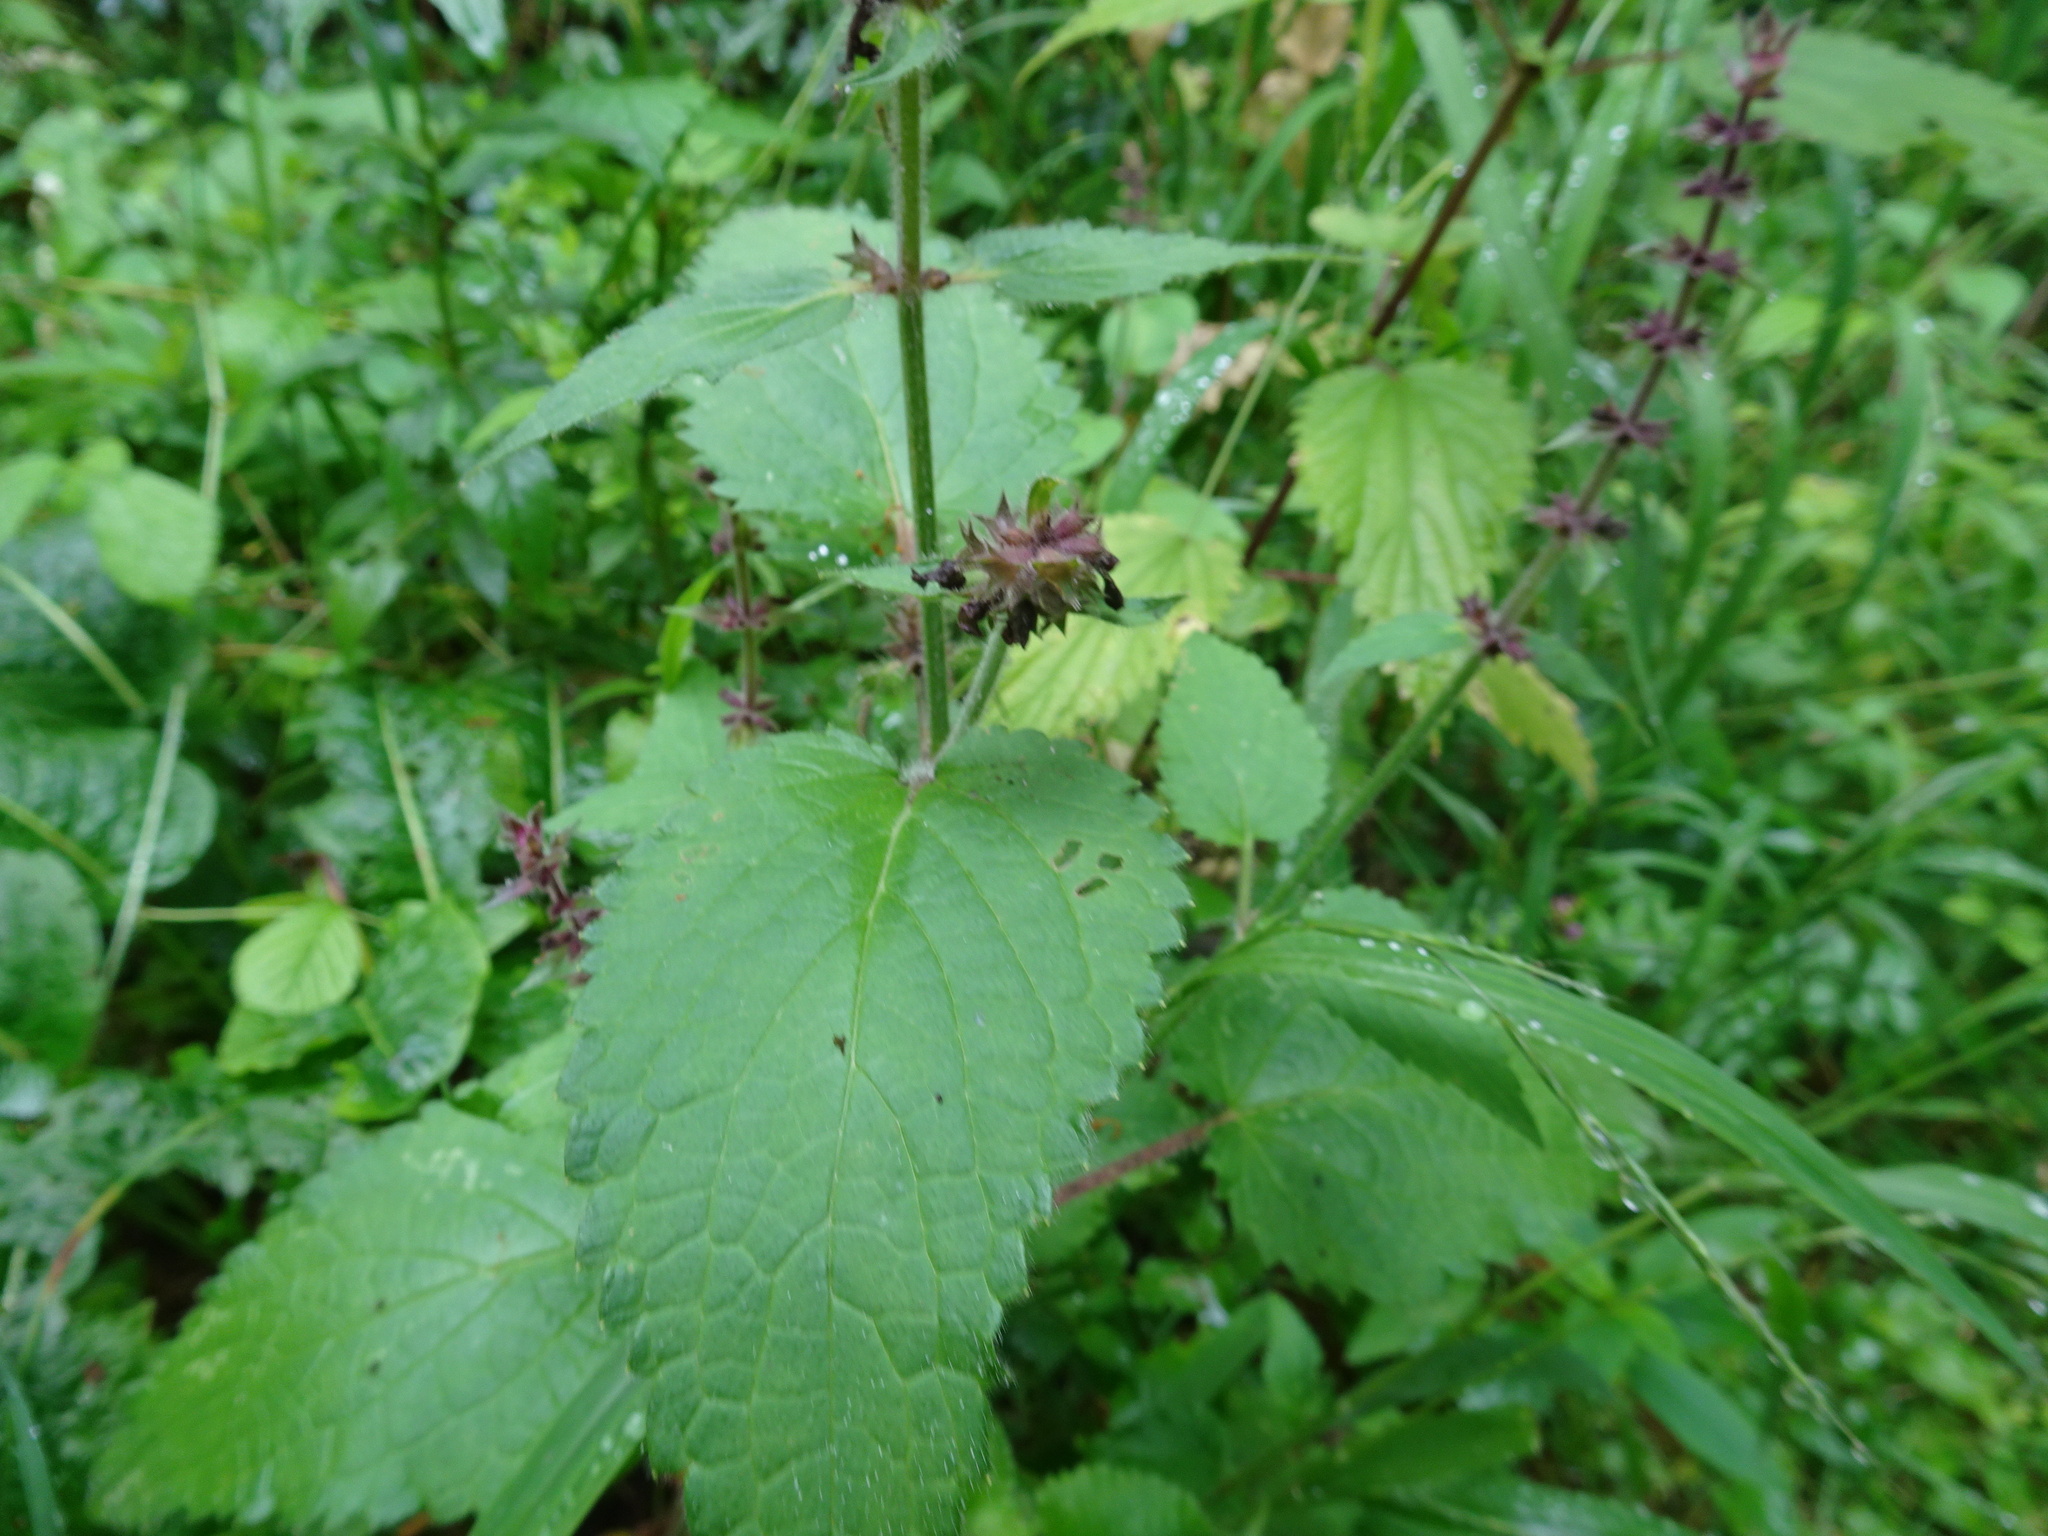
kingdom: Plantae
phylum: Tracheophyta
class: Magnoliopsida
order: Lamiales
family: Lamiaceae
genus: Stachys
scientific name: Stachys sylvatica
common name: Hedge woundwort
